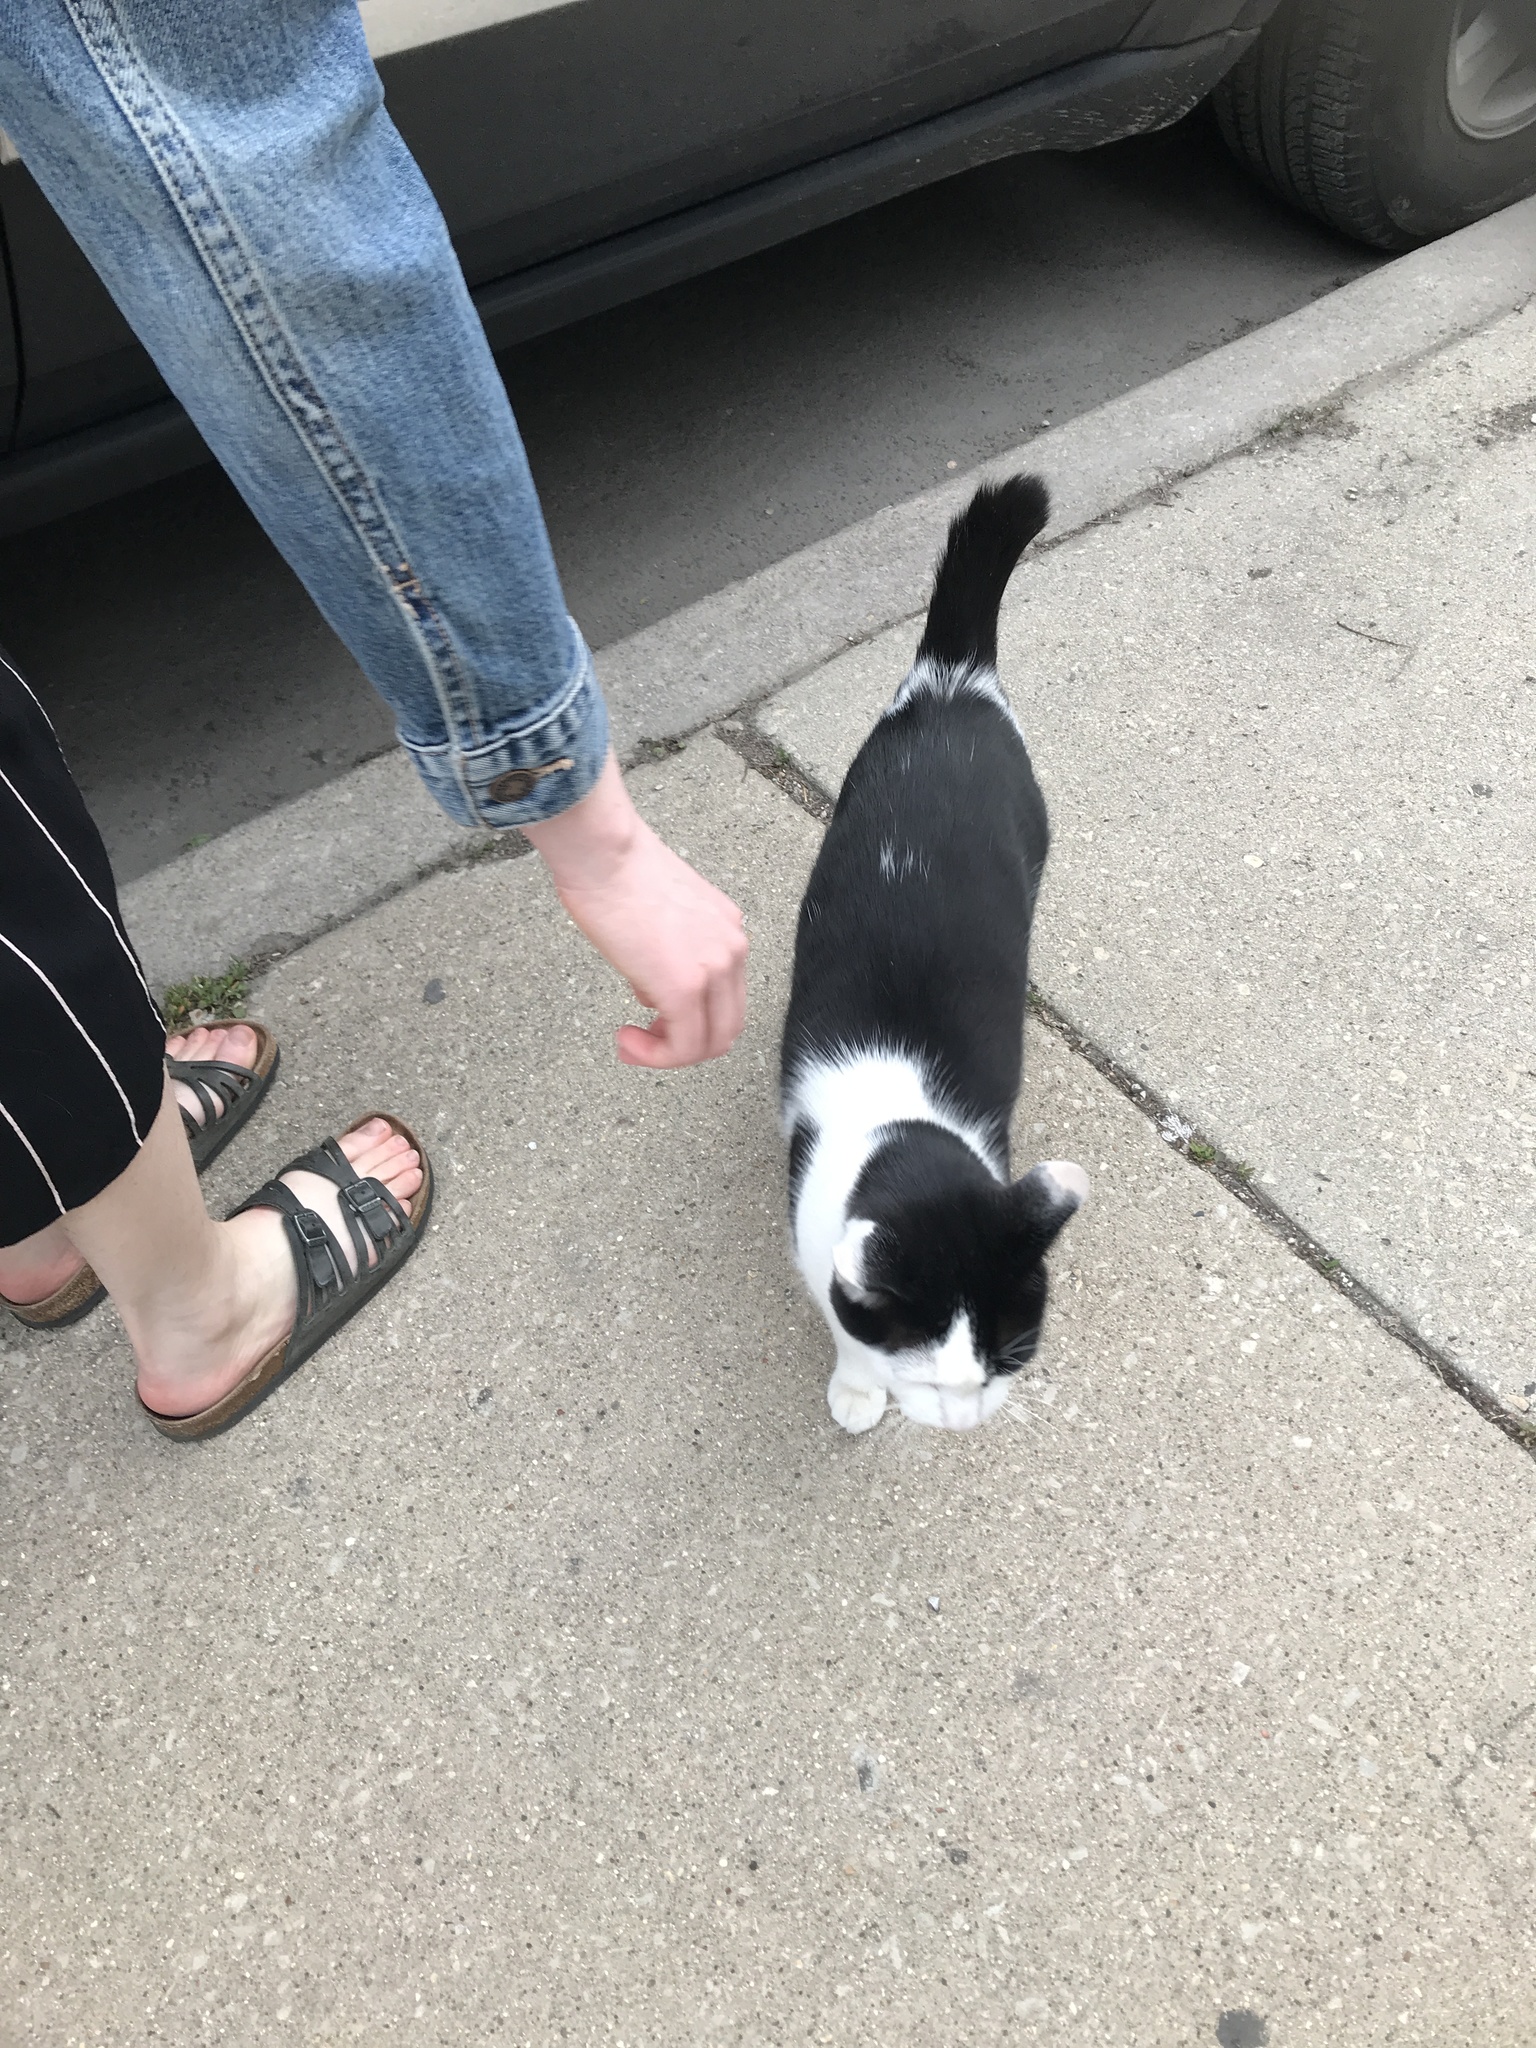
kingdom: Animalia
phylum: Chordata
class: Mammalia
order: Carnivora
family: Felidae
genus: Felis
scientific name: Felis catus
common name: Domestic cat
